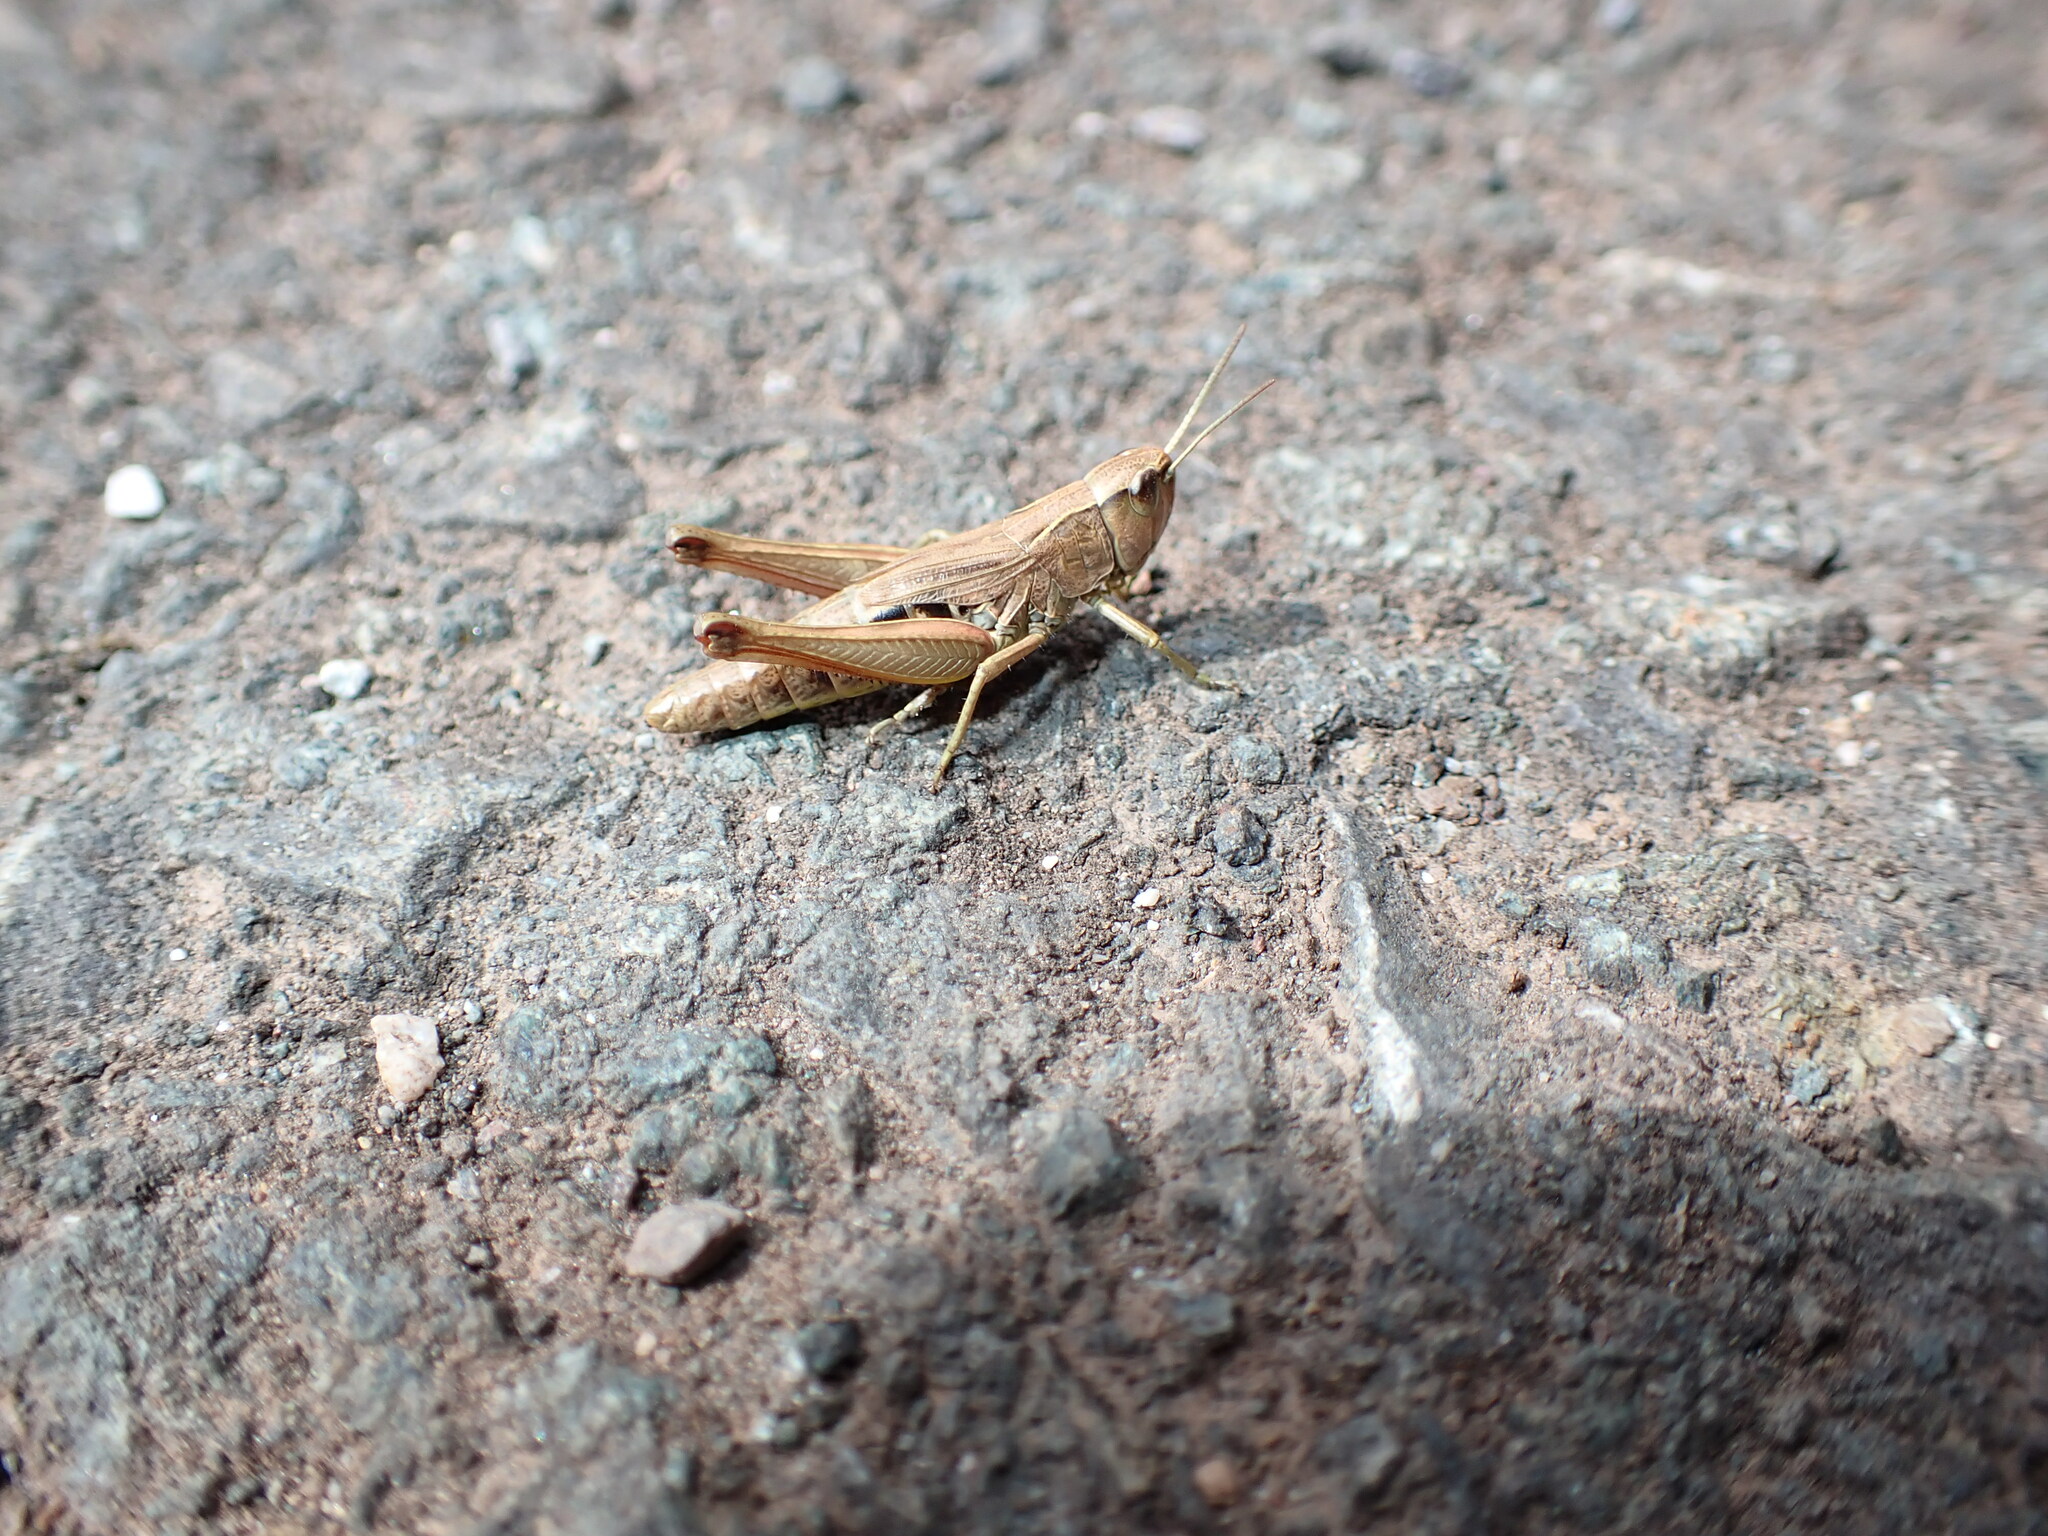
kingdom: Animalia
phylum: Arthropoda
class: Insecta
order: Orthoptera
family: Acrididae
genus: Pseudochorthippus
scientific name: Pseudochorthippus parallelus
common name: Meadow grasshopper
